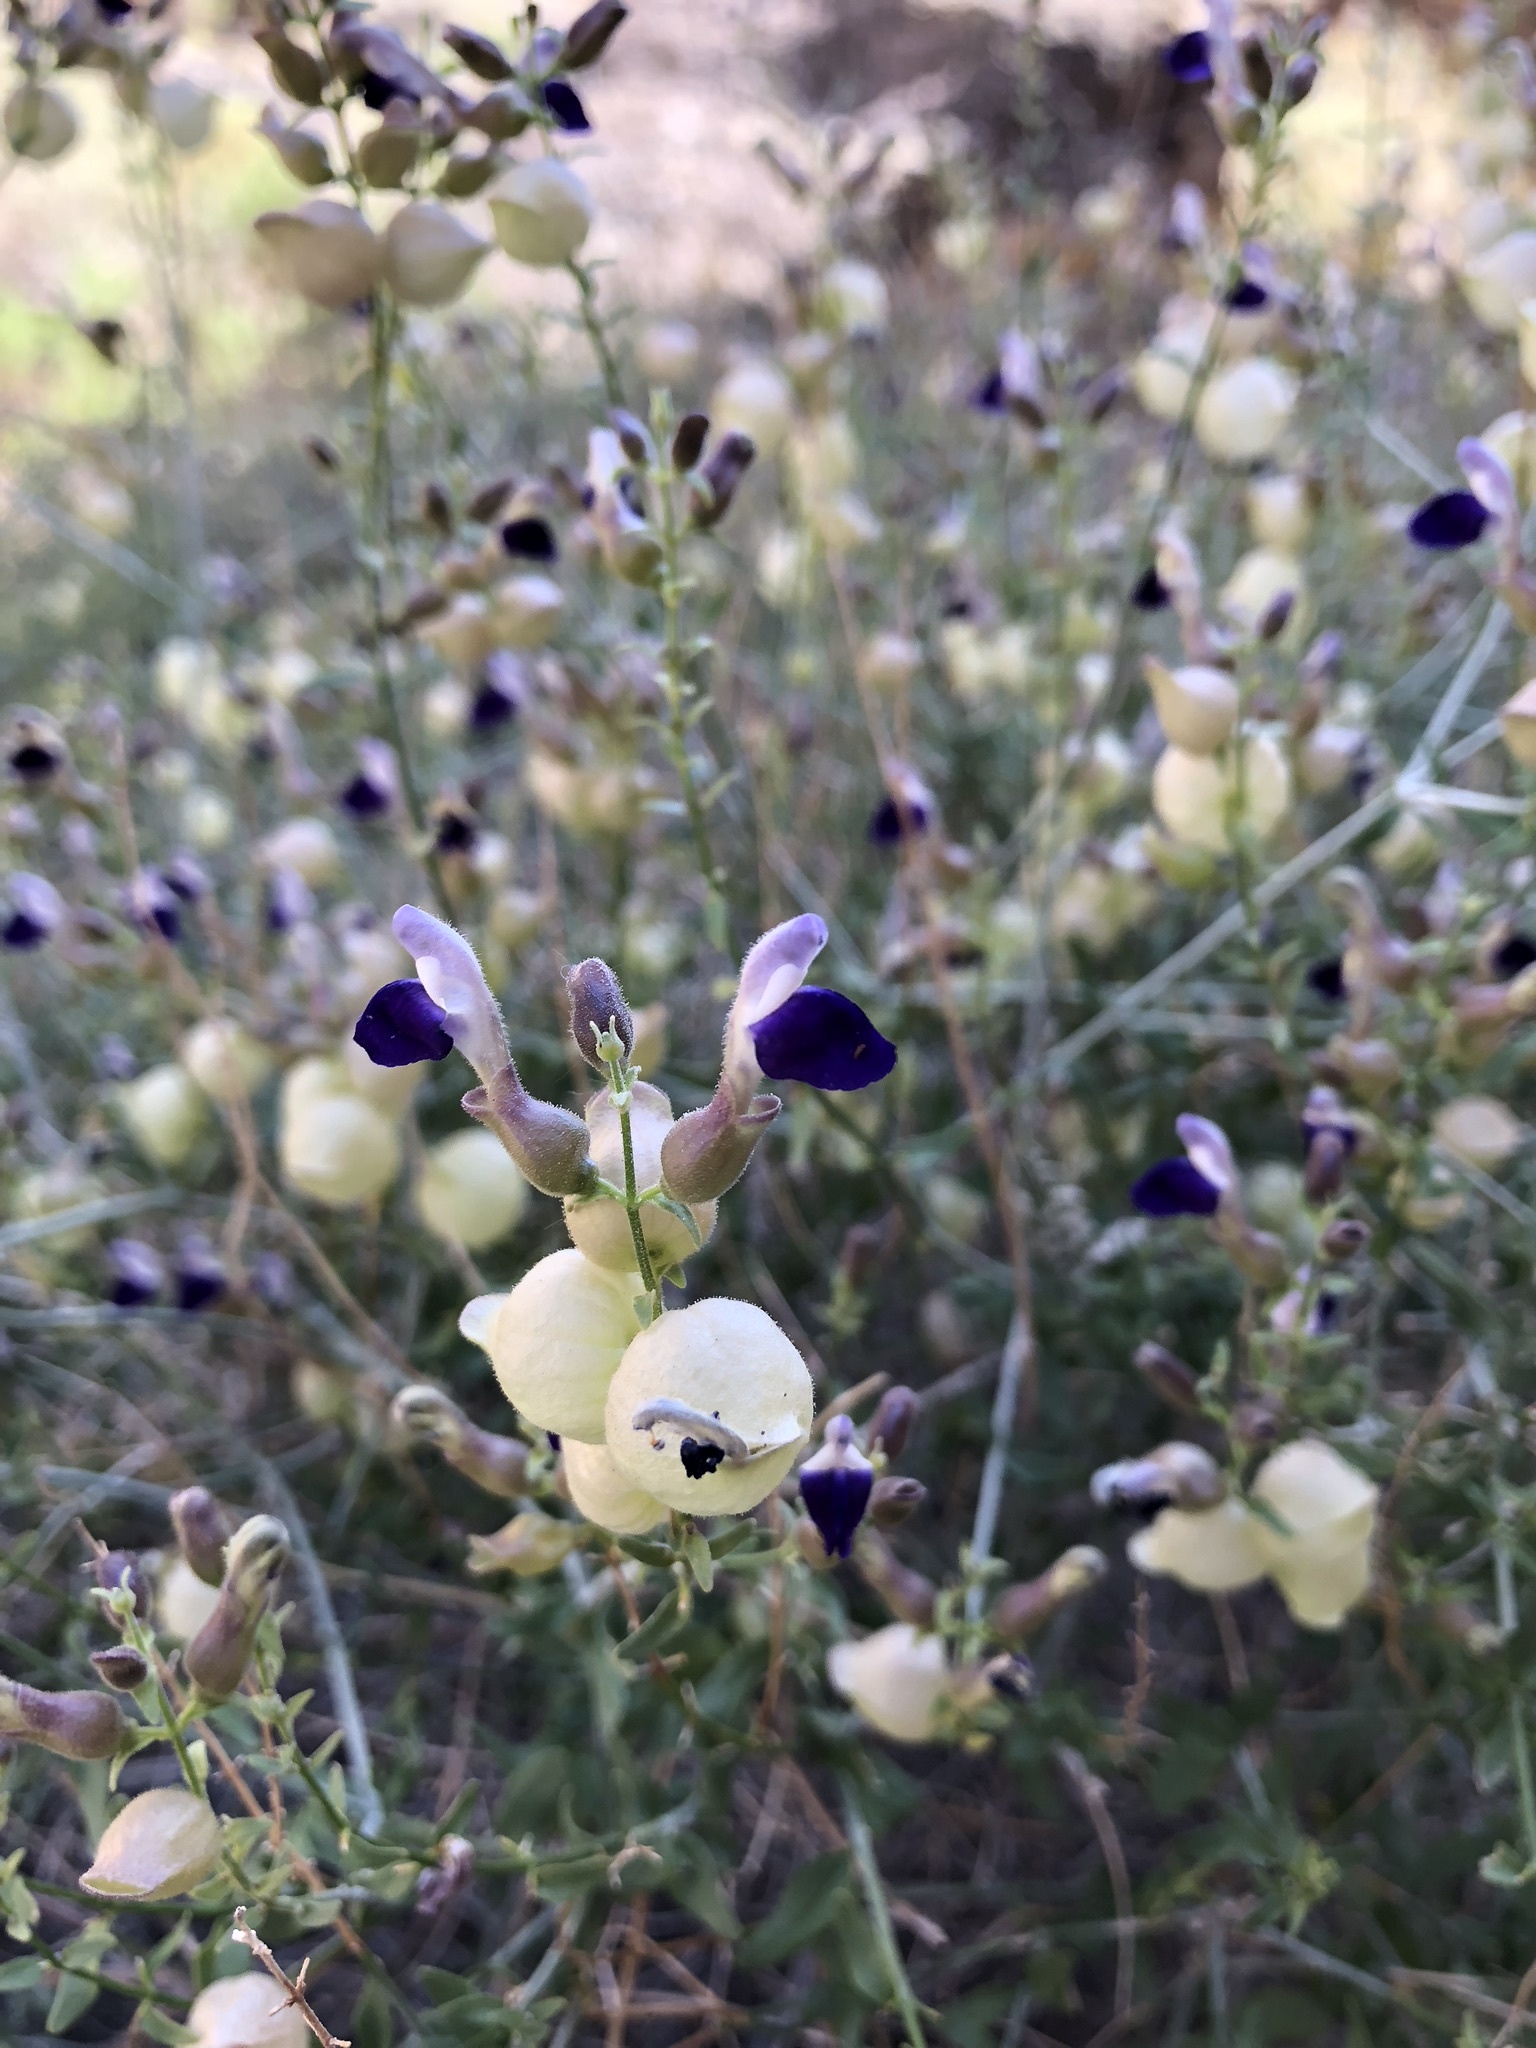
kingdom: Plantae
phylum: Tracheophyta
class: Magnoliopsida
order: Lamiales
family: Lamiaceae
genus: Scutellaria
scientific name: Scutellaria mexicana
